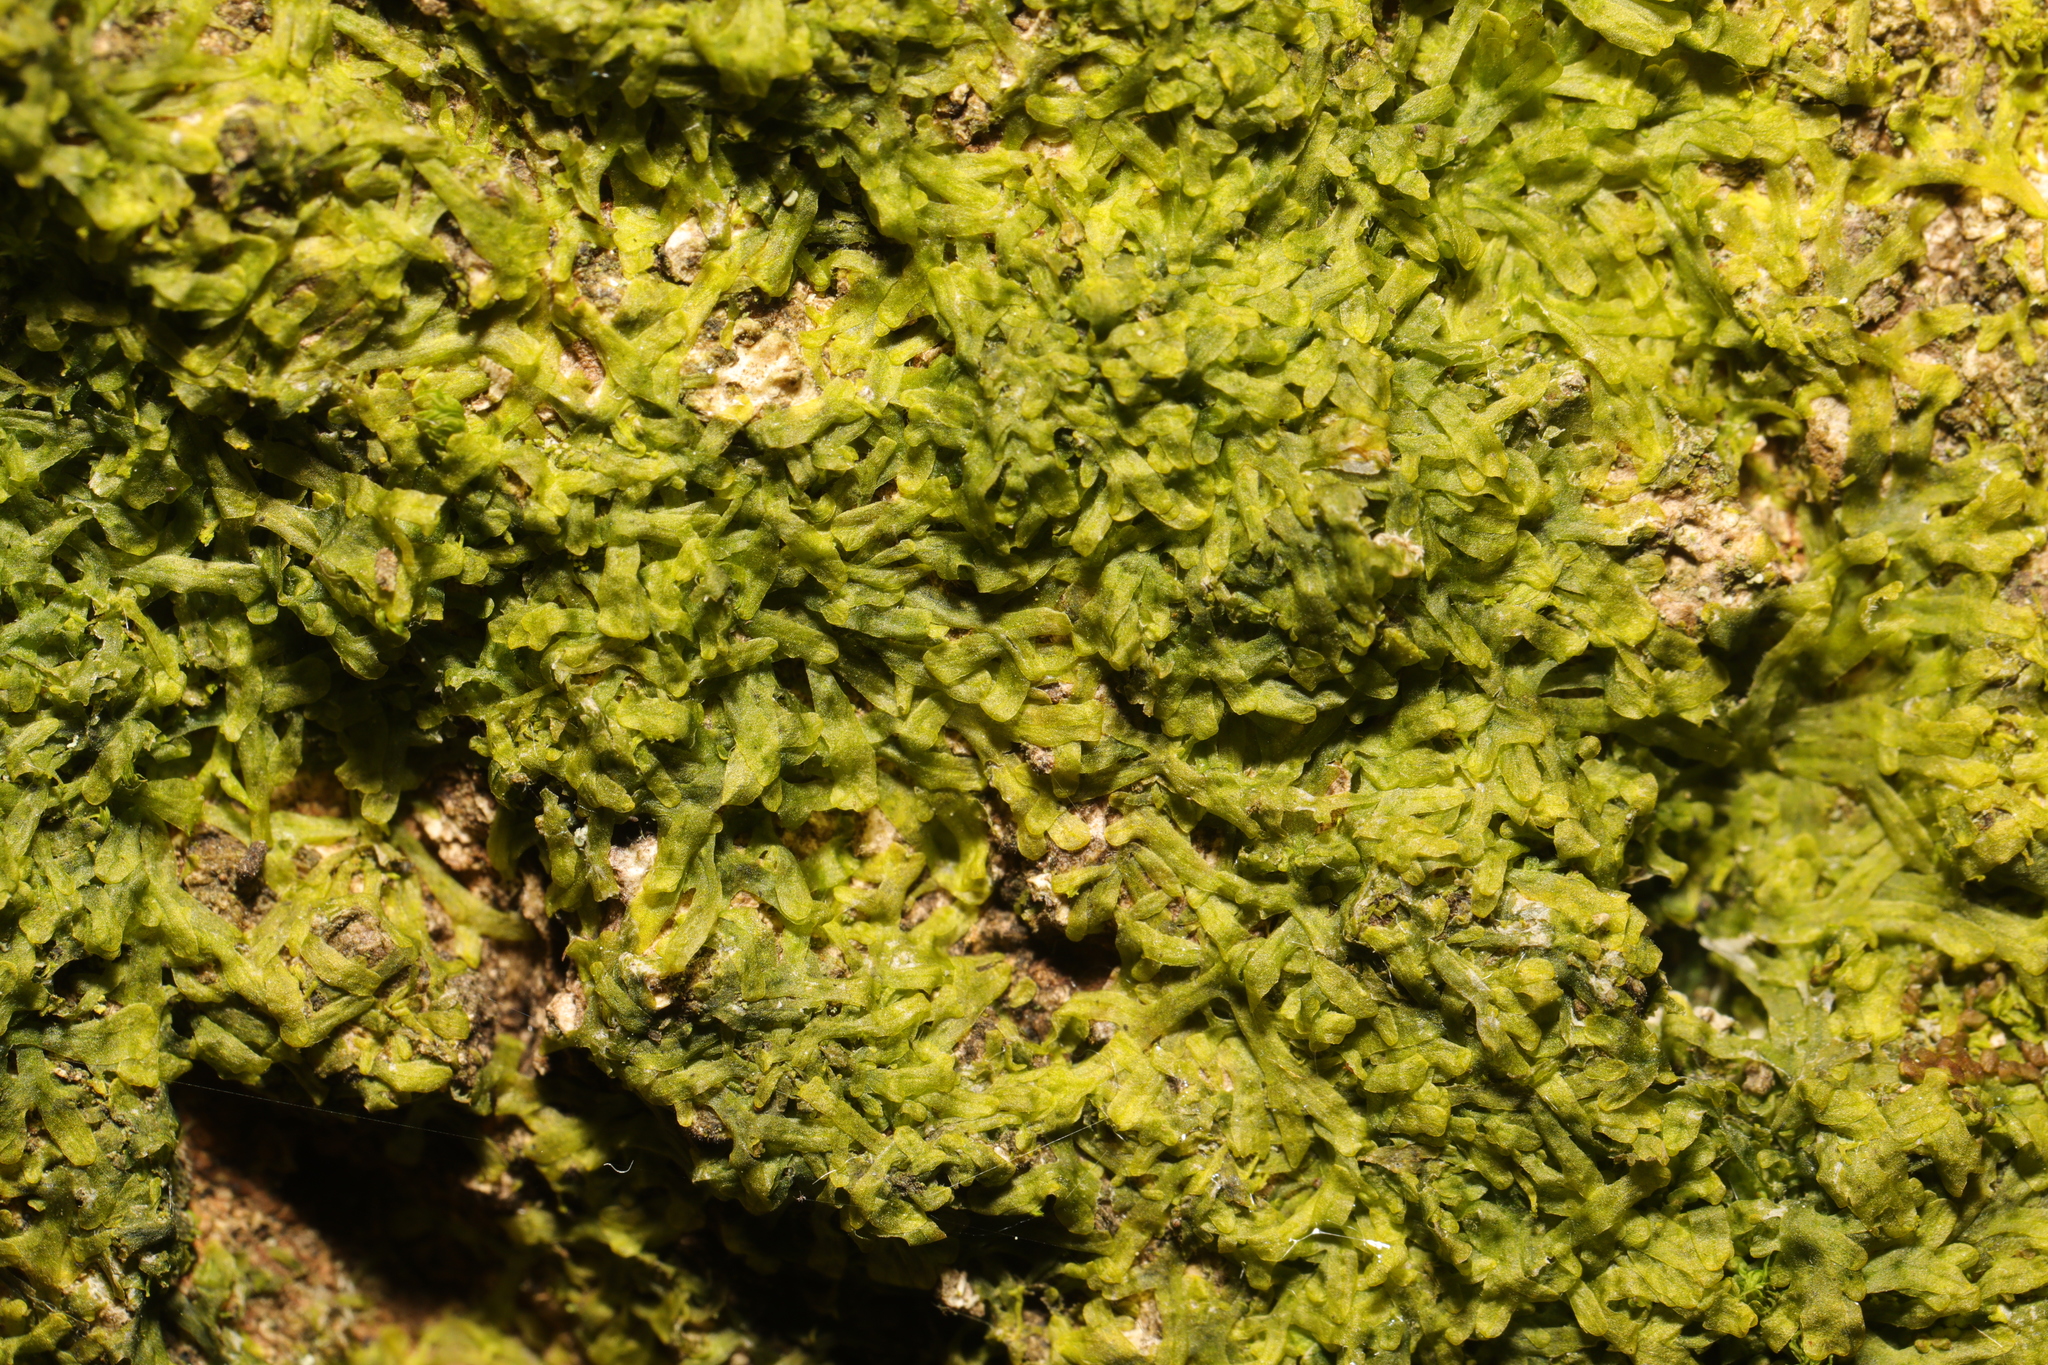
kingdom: Plantae
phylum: Marchantiophyta
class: Jungermanniopsida
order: Metzgeriales
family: Metzgeriaceae
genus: Metzgeria
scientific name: Metzgeria furcata
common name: Forked veilwort
